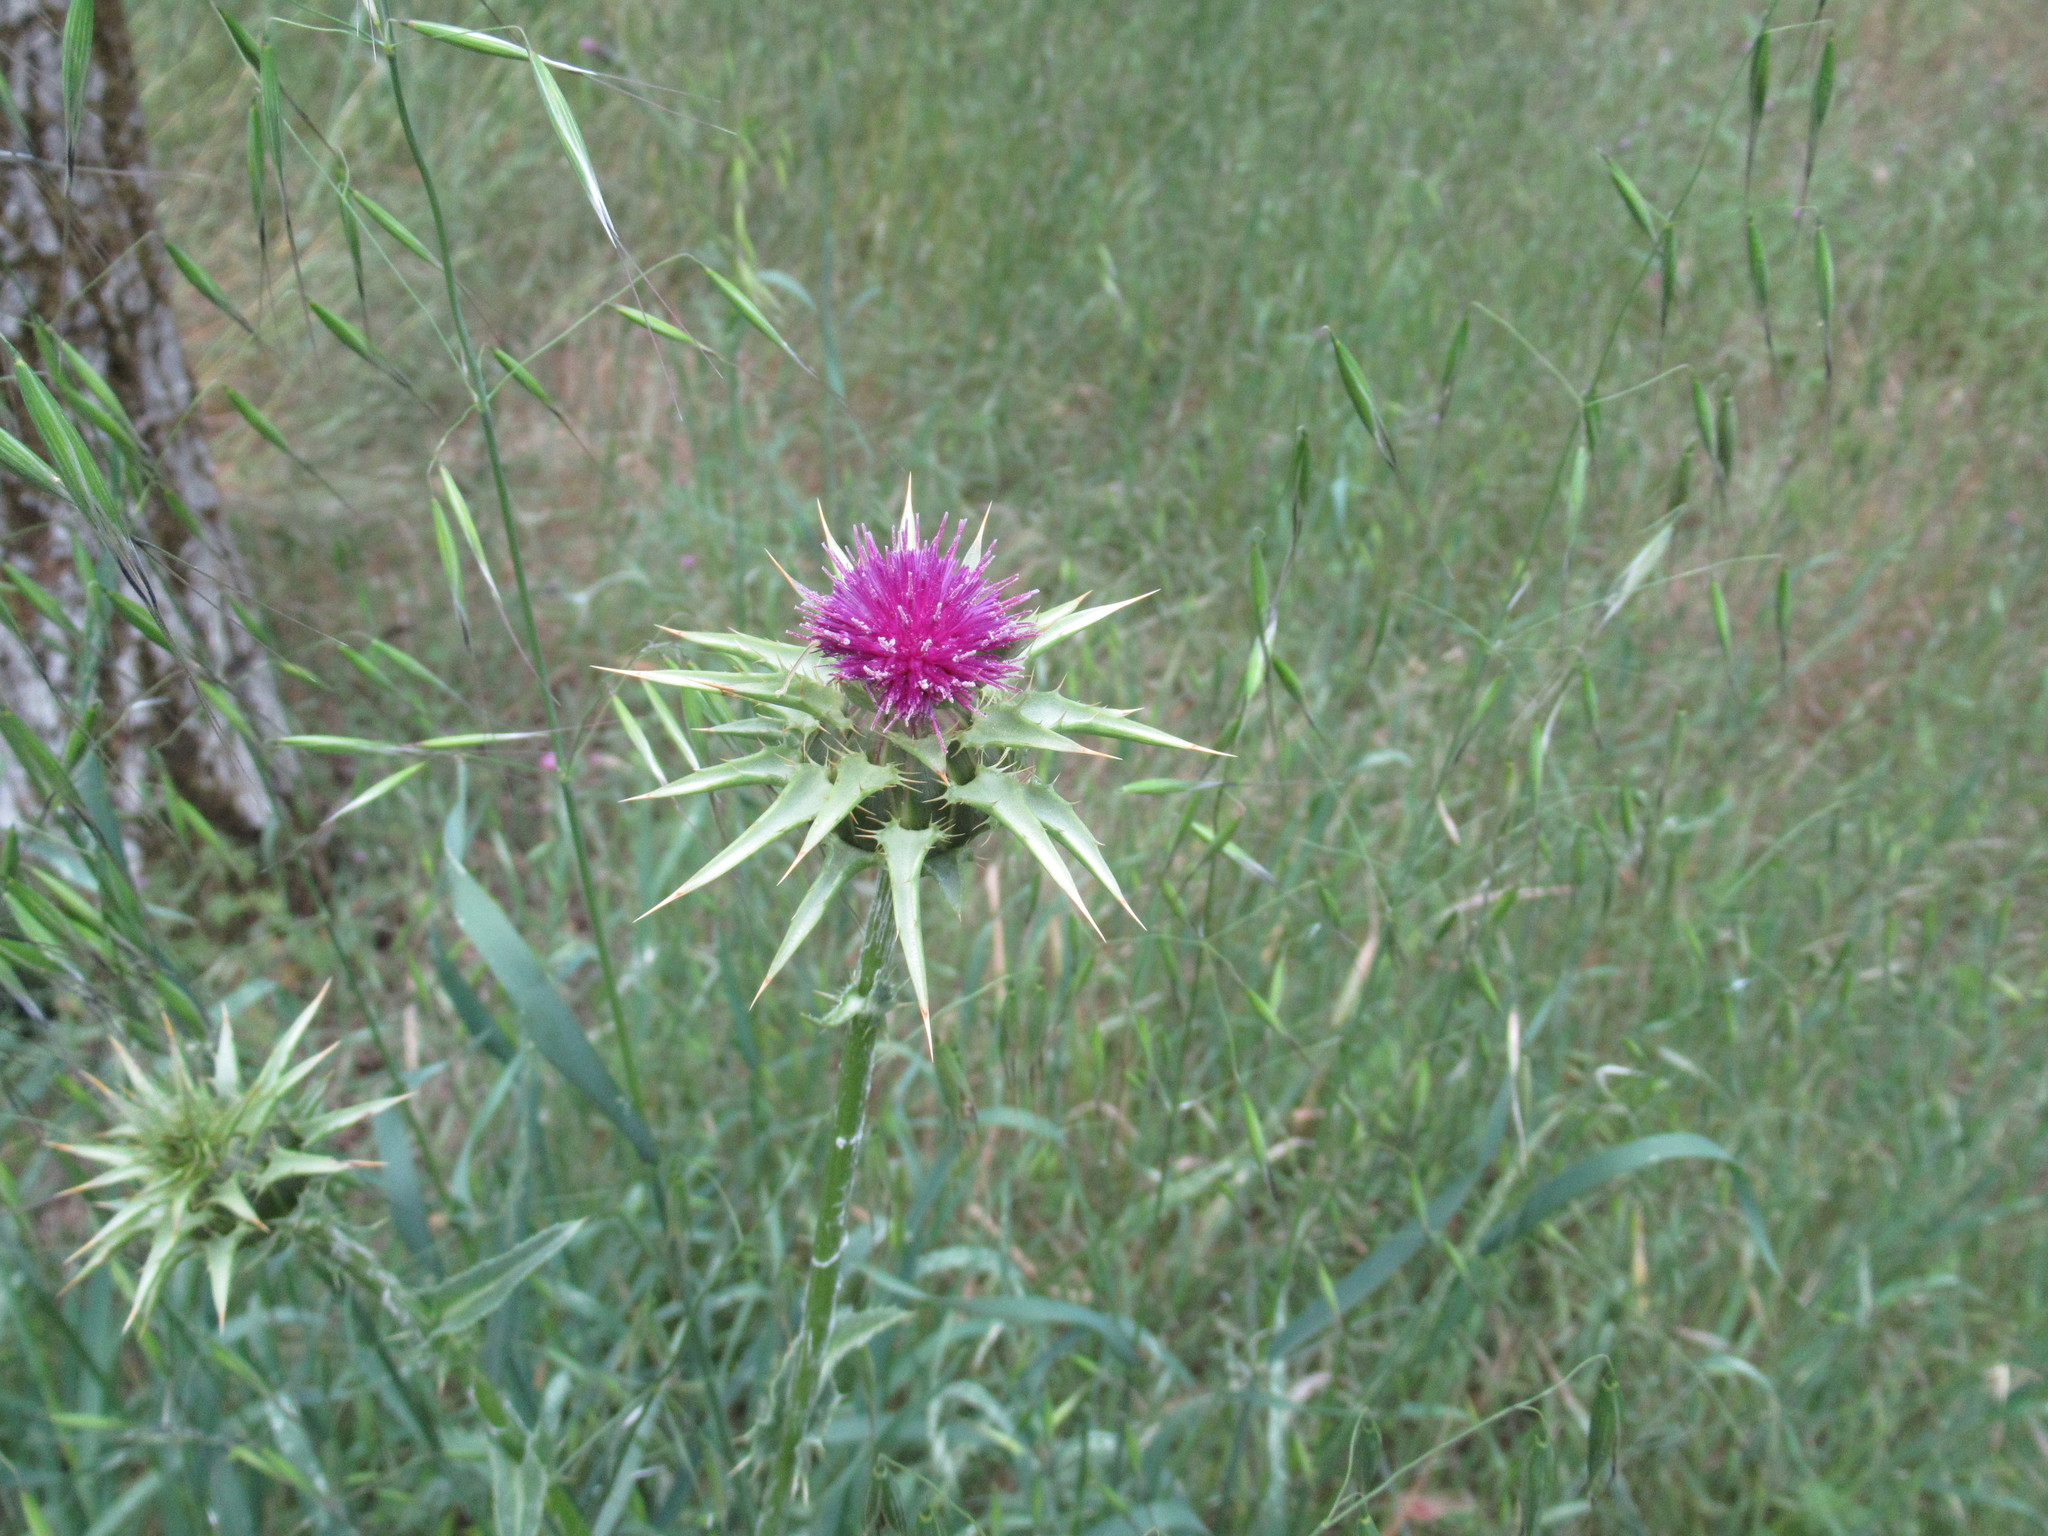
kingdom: Plantae
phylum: Tracheophyta
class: Magnoliopsida
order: Asterales
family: Asteraceae
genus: Silybum
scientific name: Silybum marianum
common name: Milk thistle
